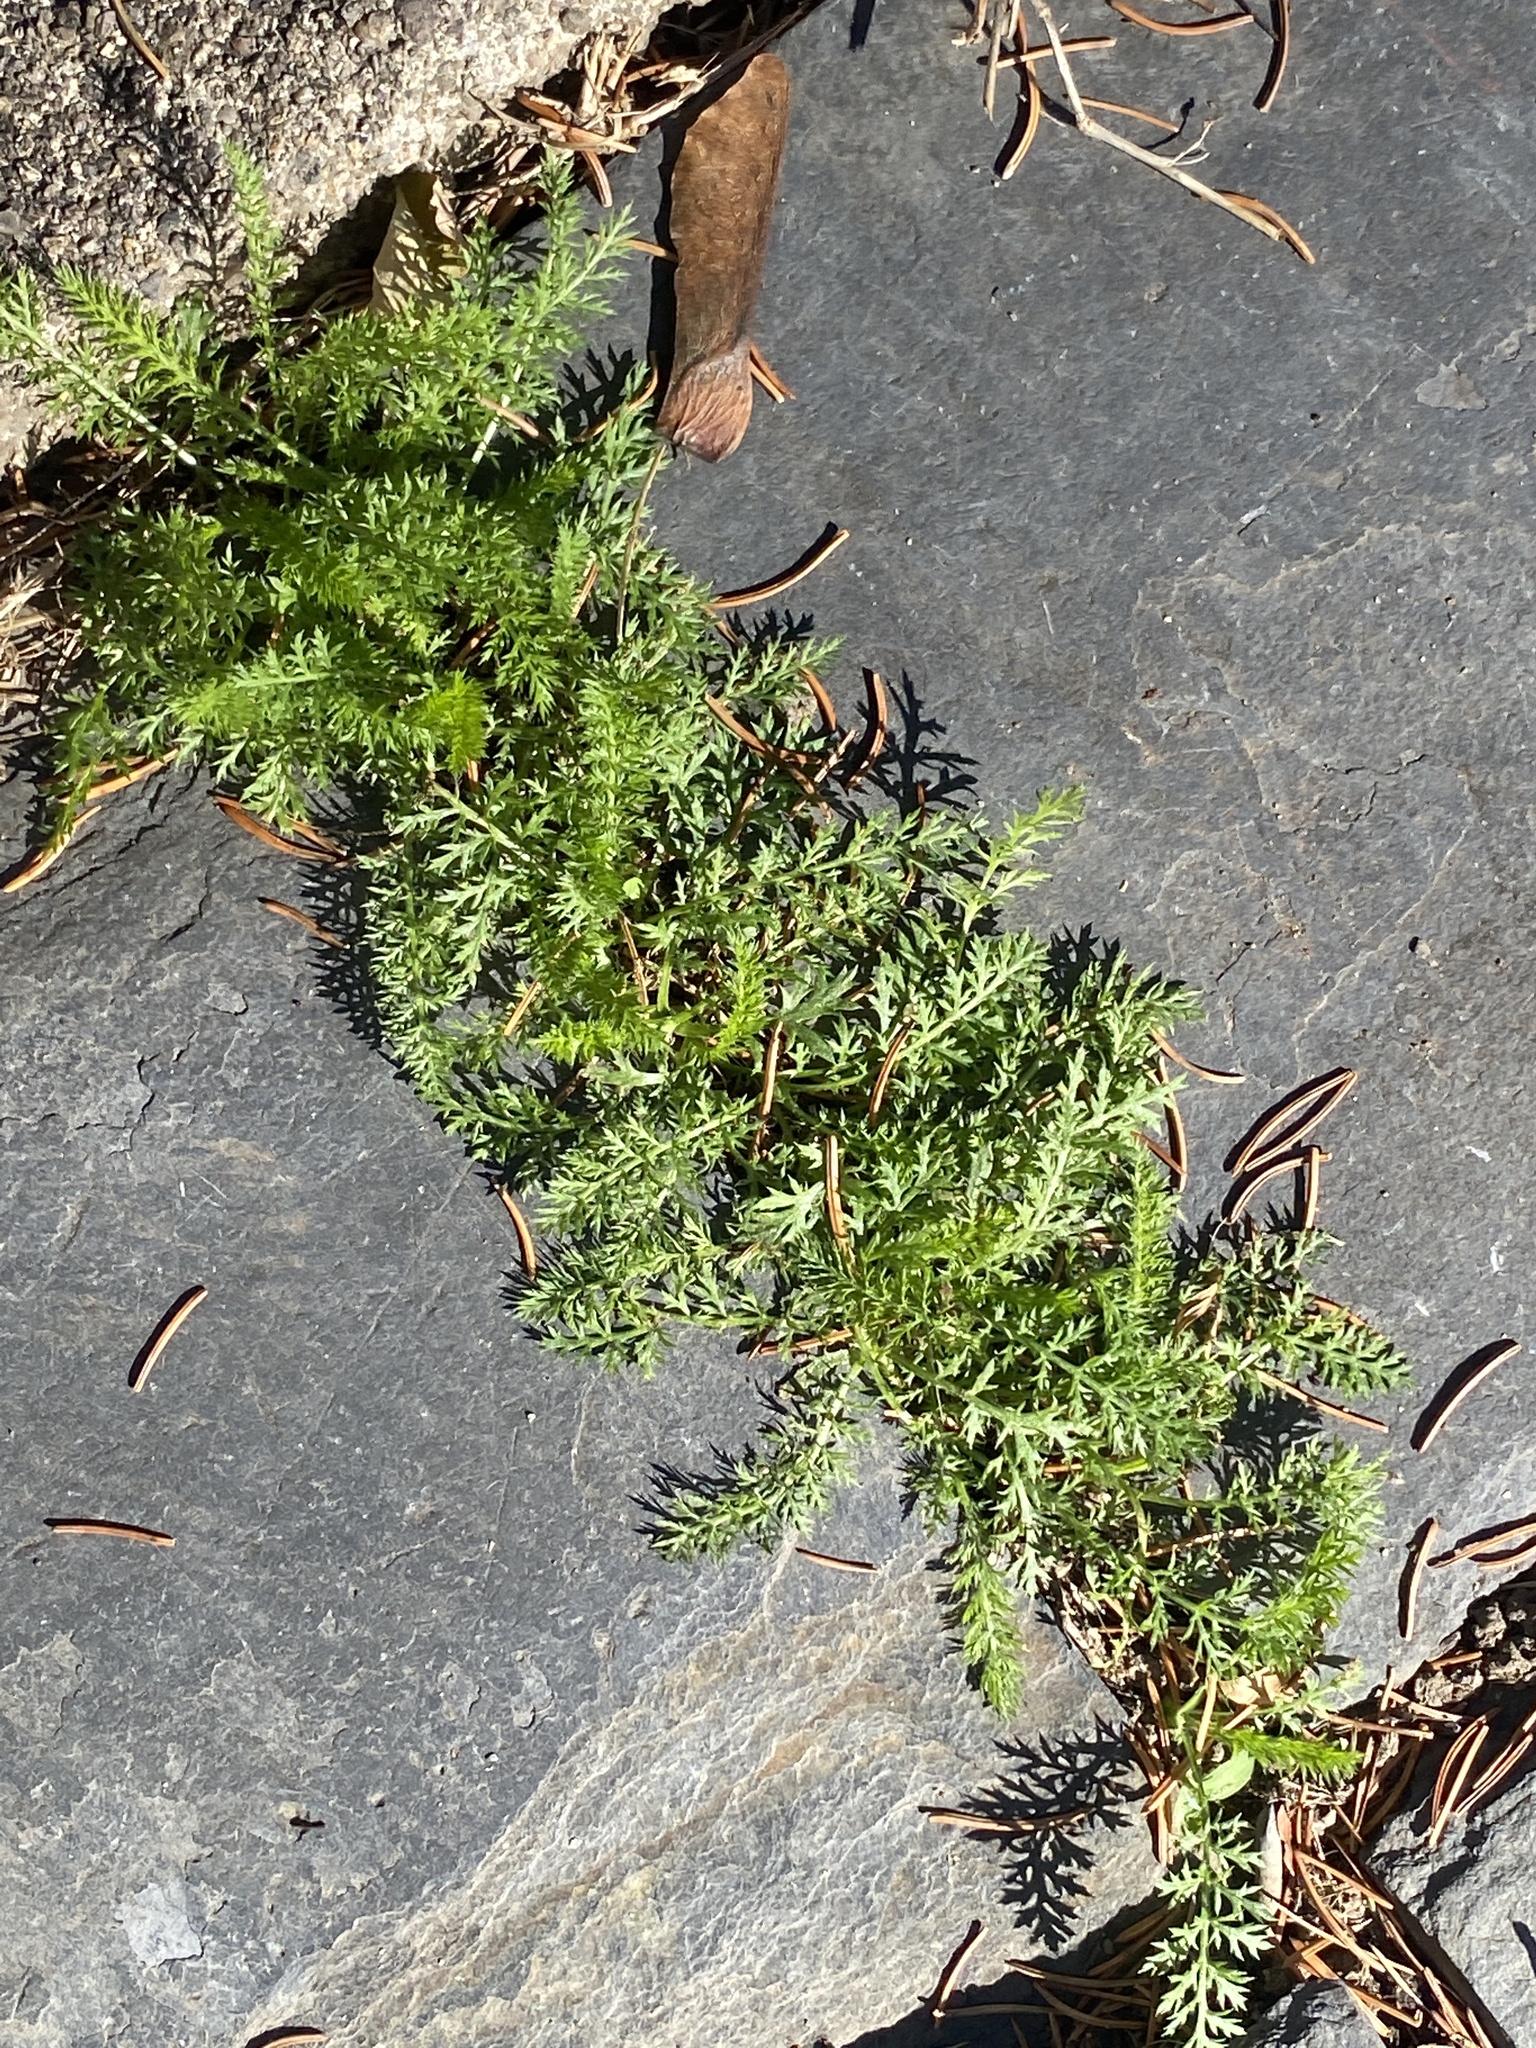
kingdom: Plantae
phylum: Tracheophyta
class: Magnoliopsida
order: Asterales
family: Asteraceae
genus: Achillea
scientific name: Achillea millefolium
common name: Yarrow
